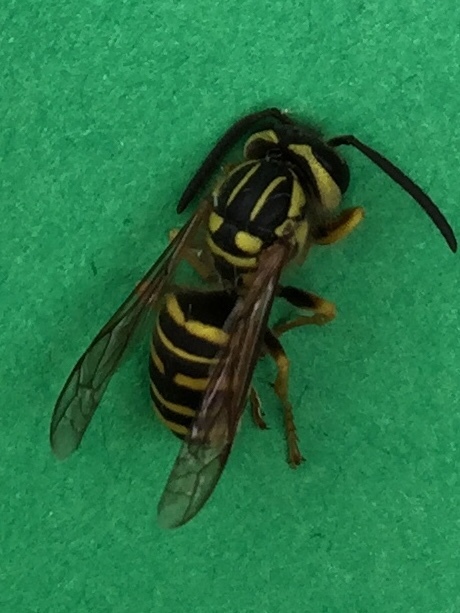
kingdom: Animalia
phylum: Arthropoda
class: Insecta
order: Hymenoptera
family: Vespidae
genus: Vespula
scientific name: Vespula squamosa
